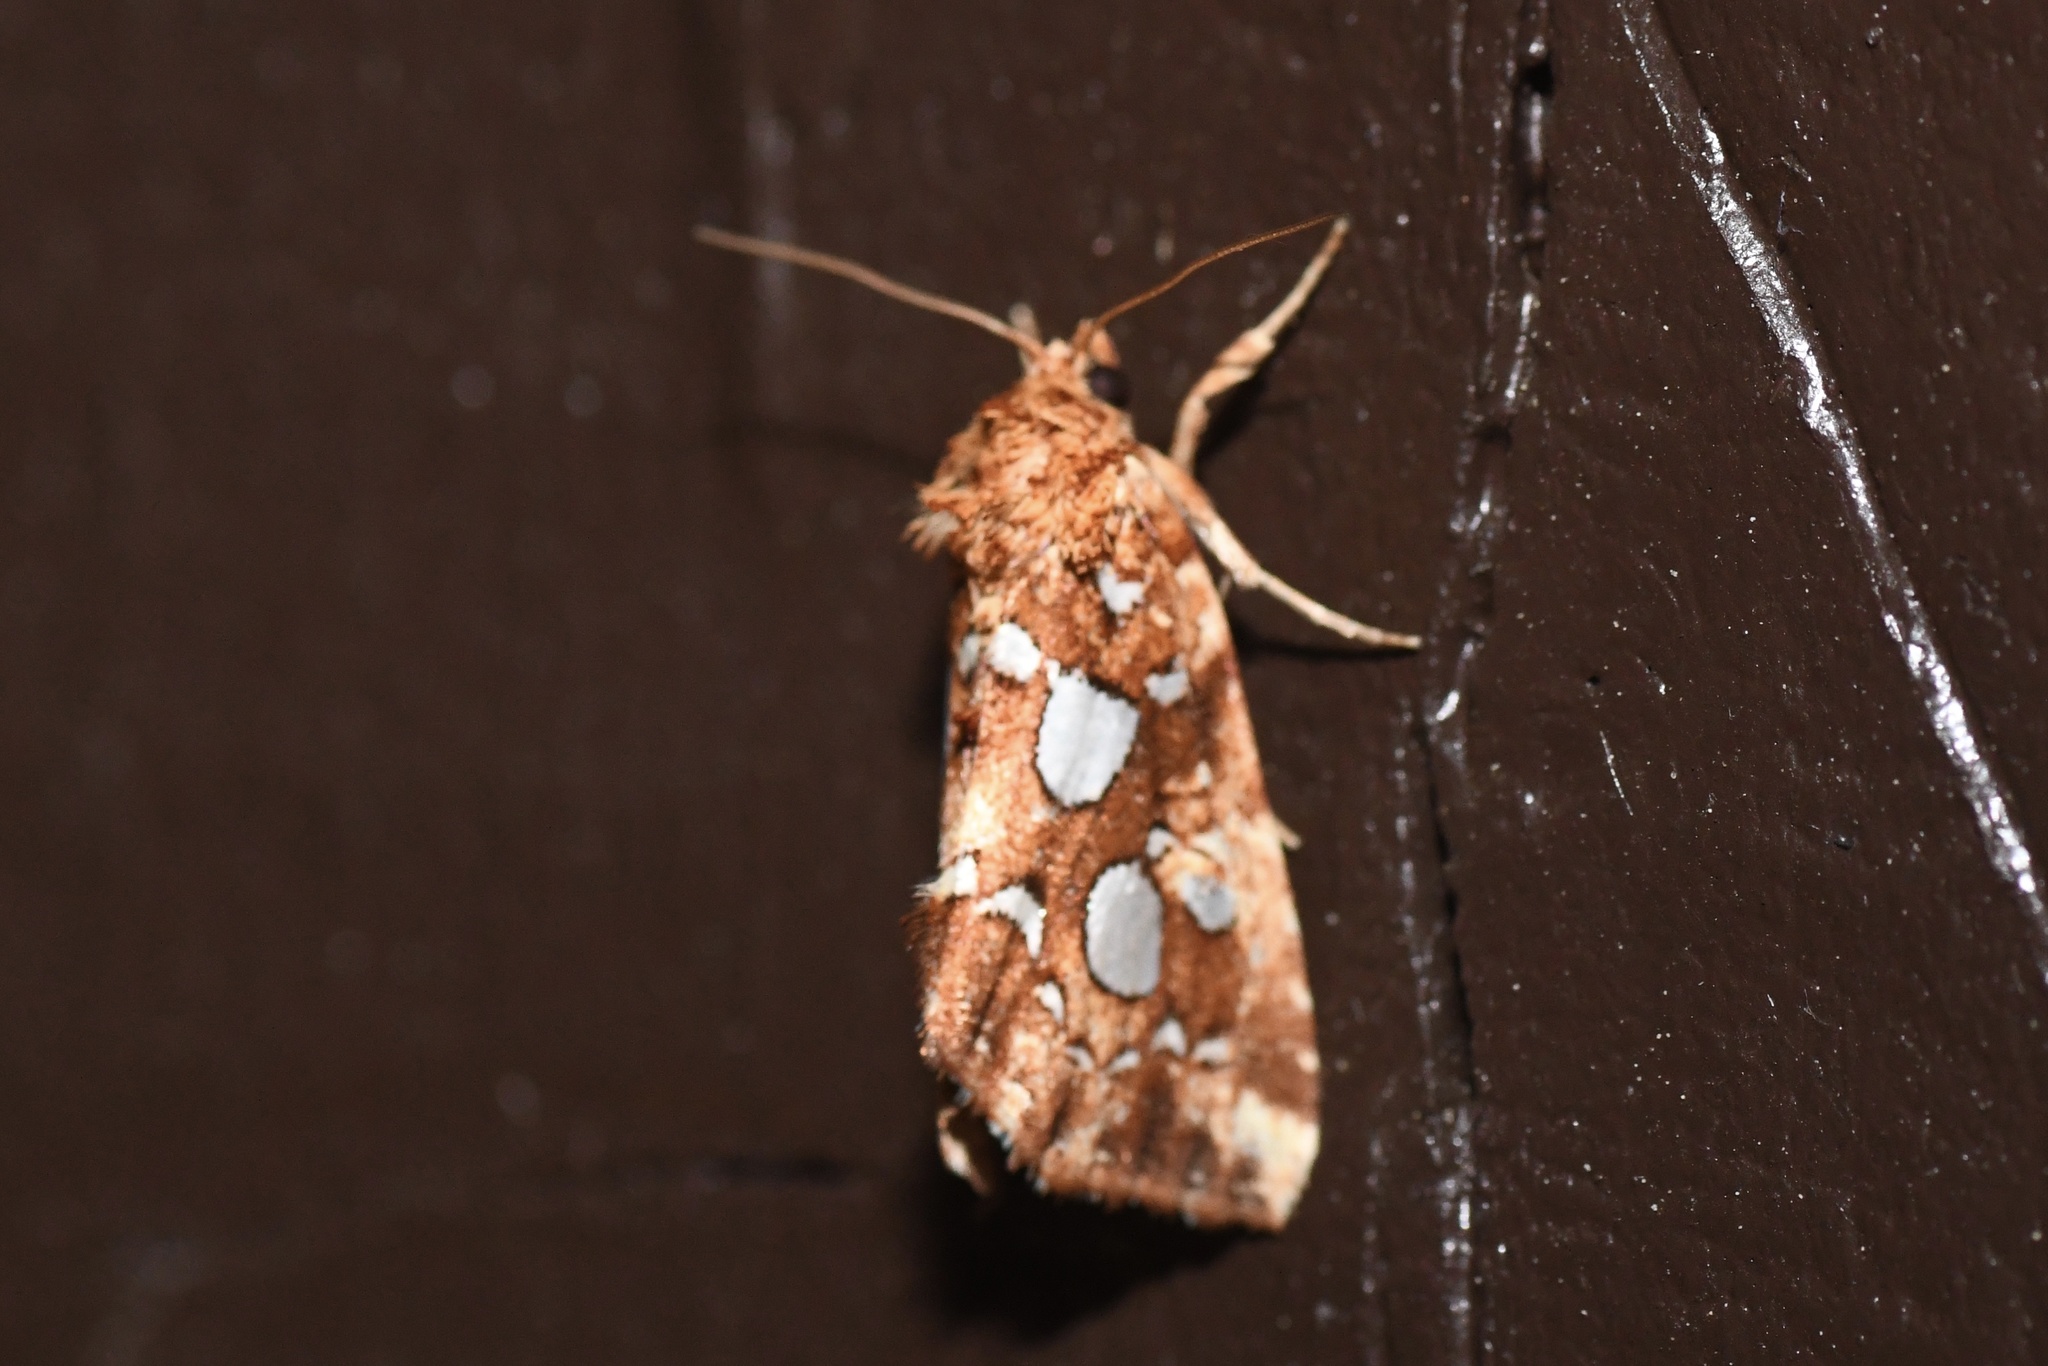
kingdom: Animalia
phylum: Arthropoda
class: Insecta
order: Lepidoptera
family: Noctuidae
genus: Callopistria
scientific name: Callopistria cordata
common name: Silver-spotted fern moth
